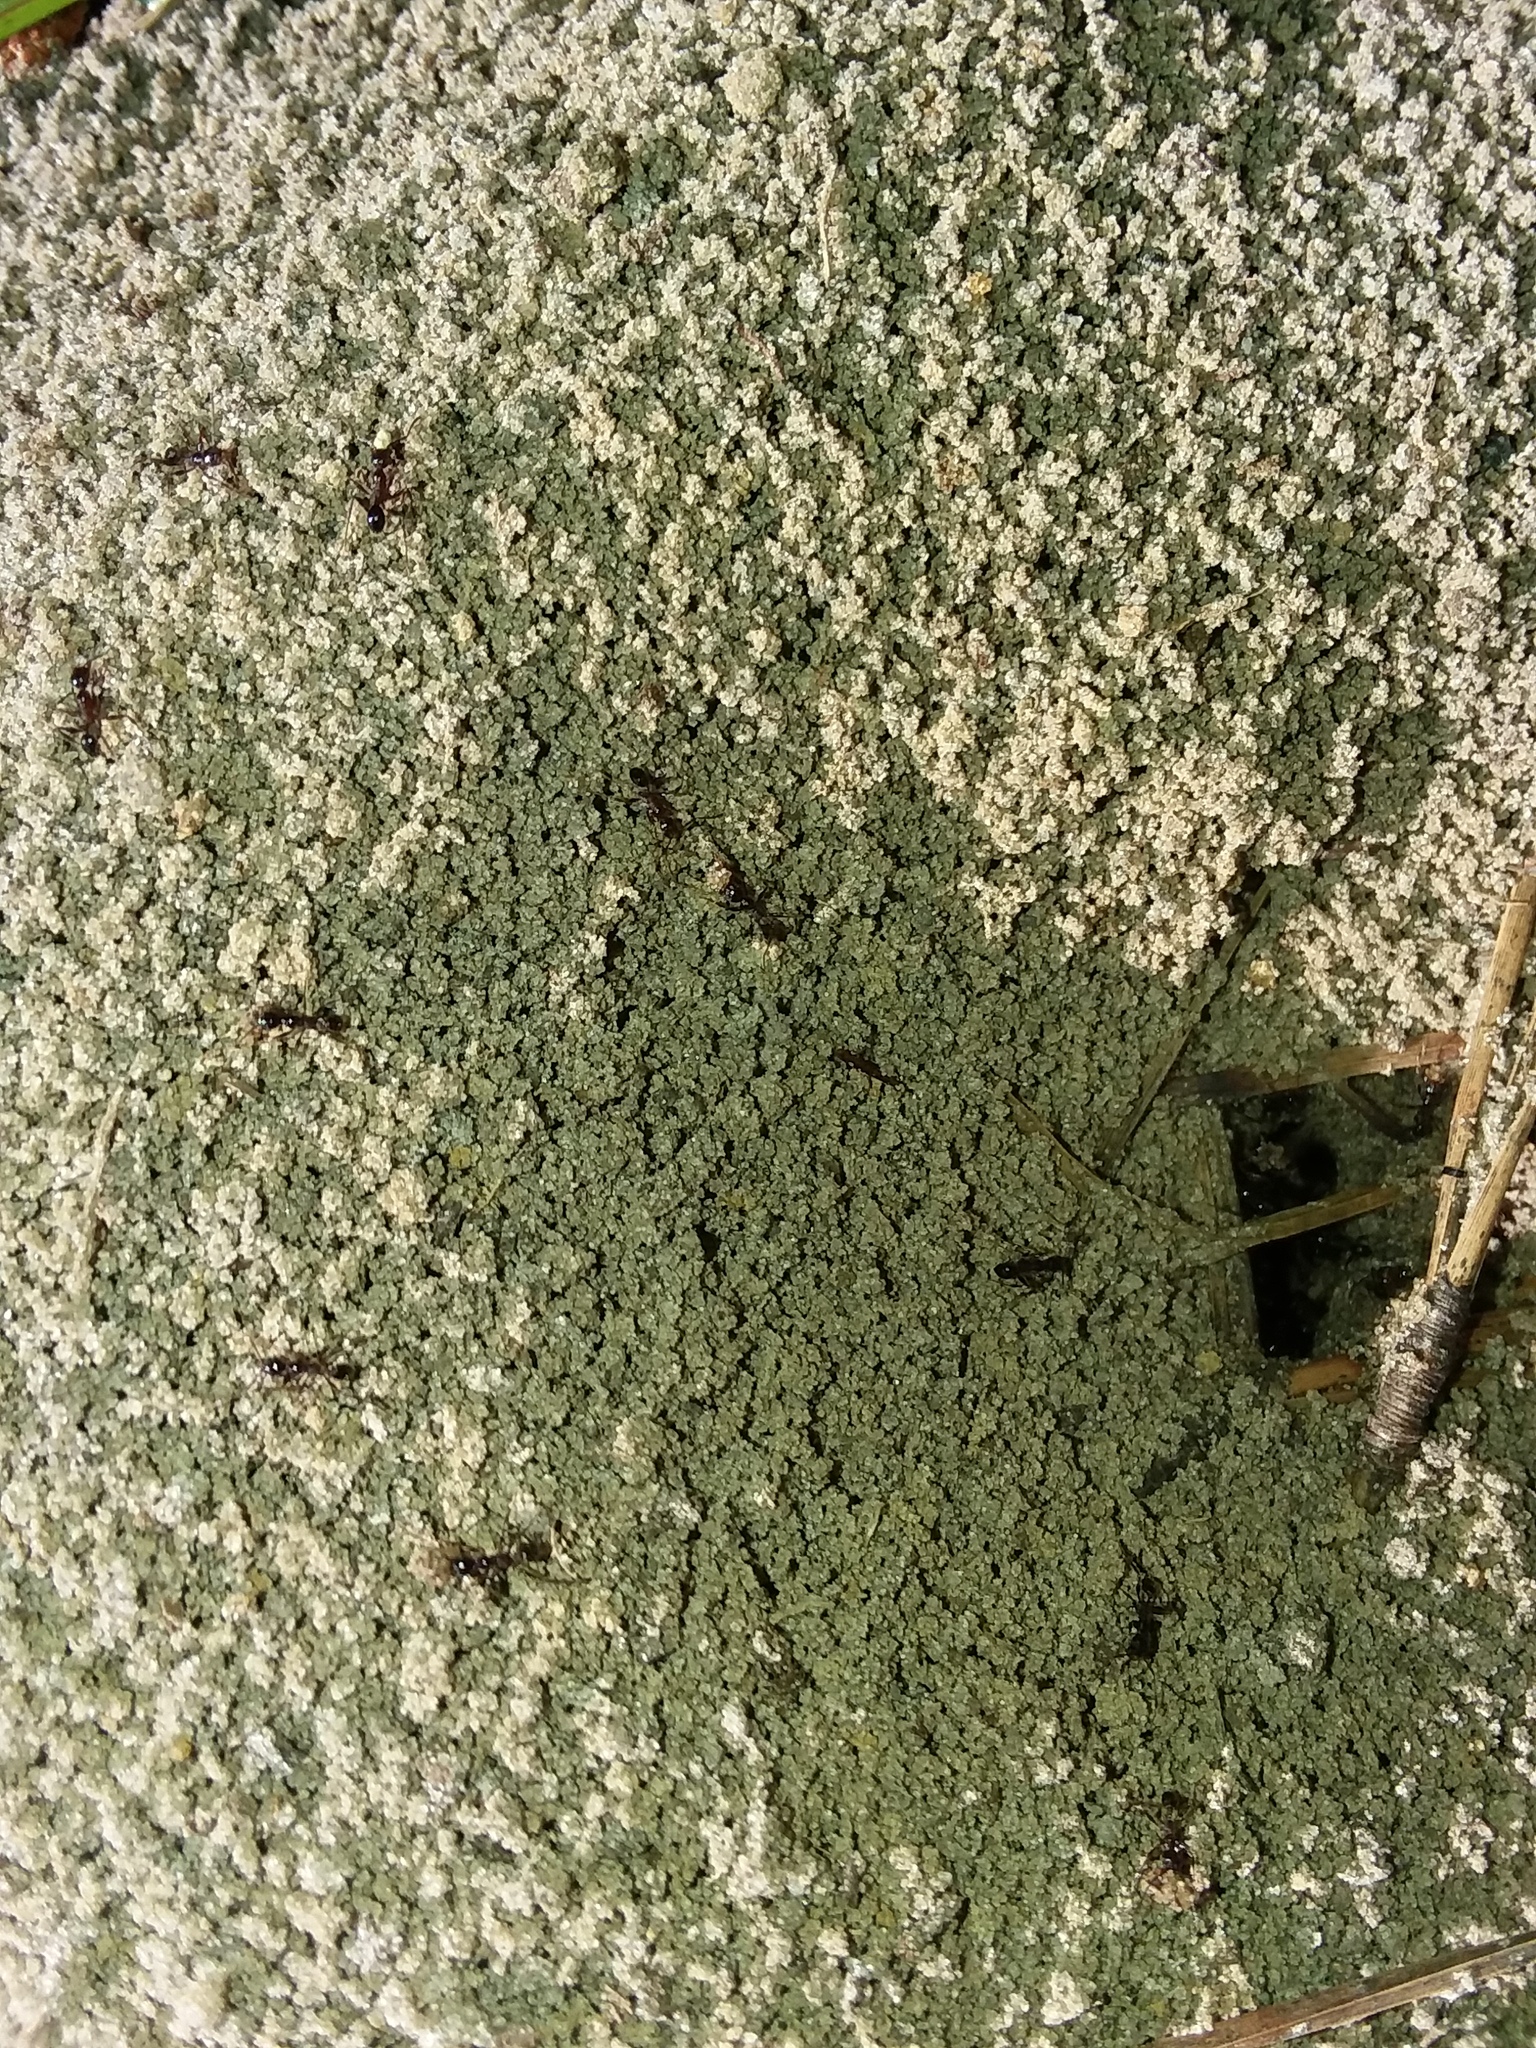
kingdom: Animalia
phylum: Arthropoda
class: Insecta
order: Hymenoptera
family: Formicidae
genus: Pheidole
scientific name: Pheidole obscurithorax
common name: Obscure big-headed ant
